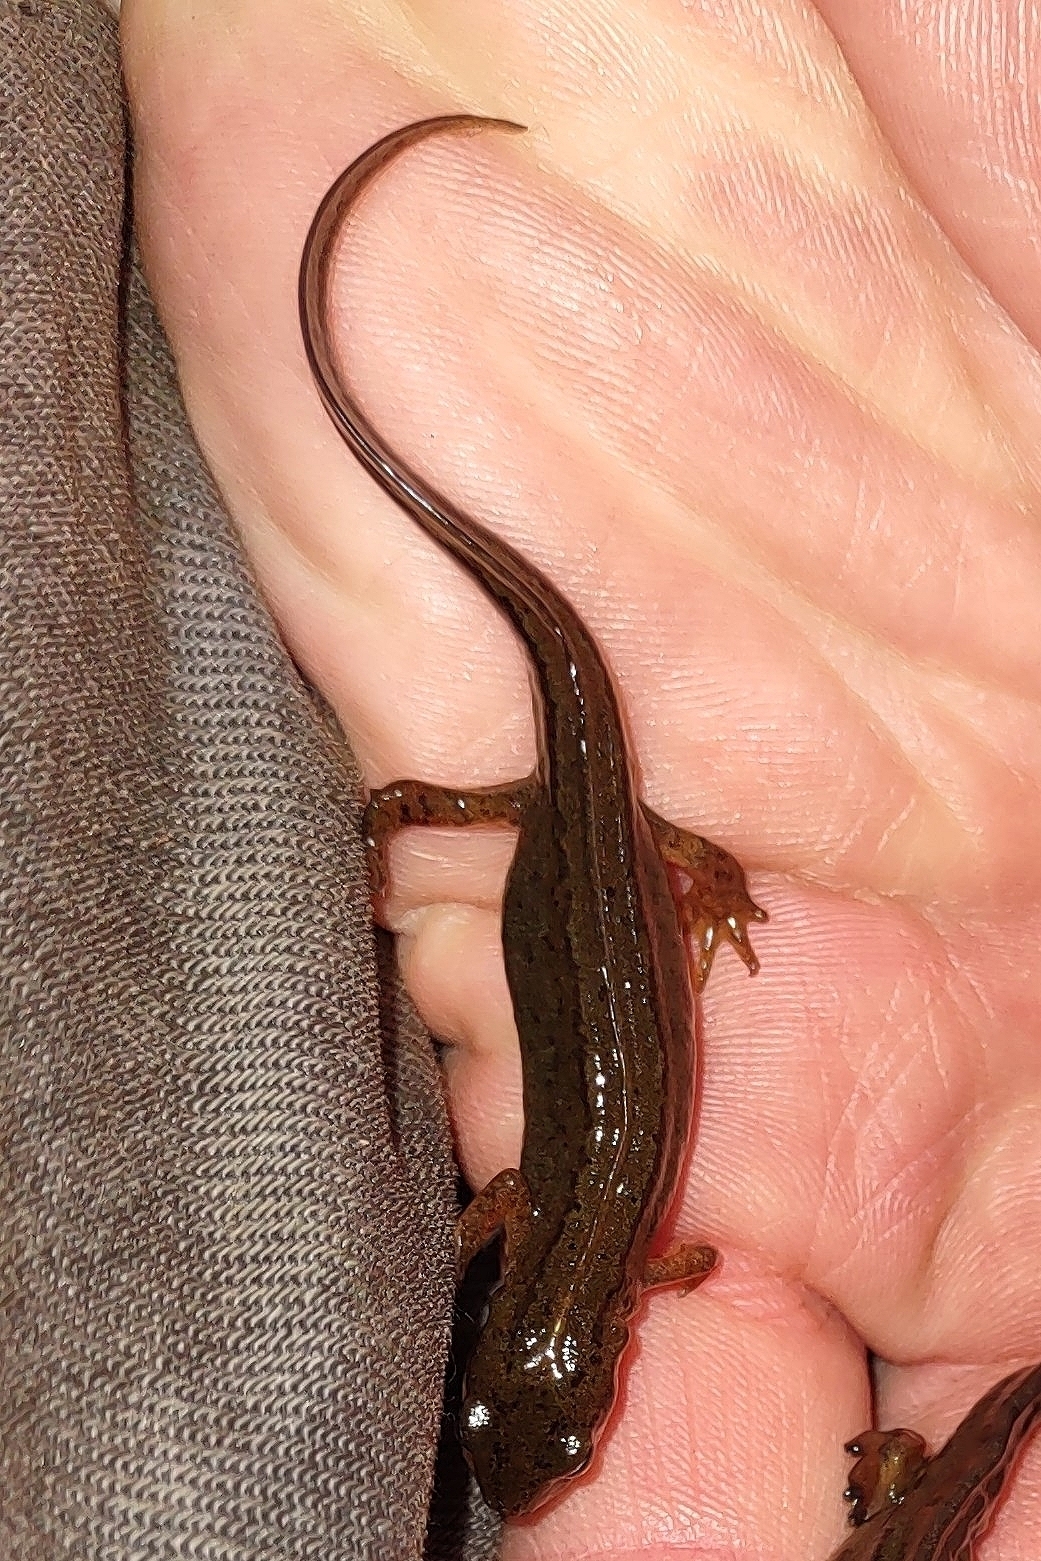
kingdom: Animalia
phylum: Chordata
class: Amphibia
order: Caudata
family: Salamandridae
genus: Lissotriton
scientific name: Lissotriton vulgaris
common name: Smooth newt
